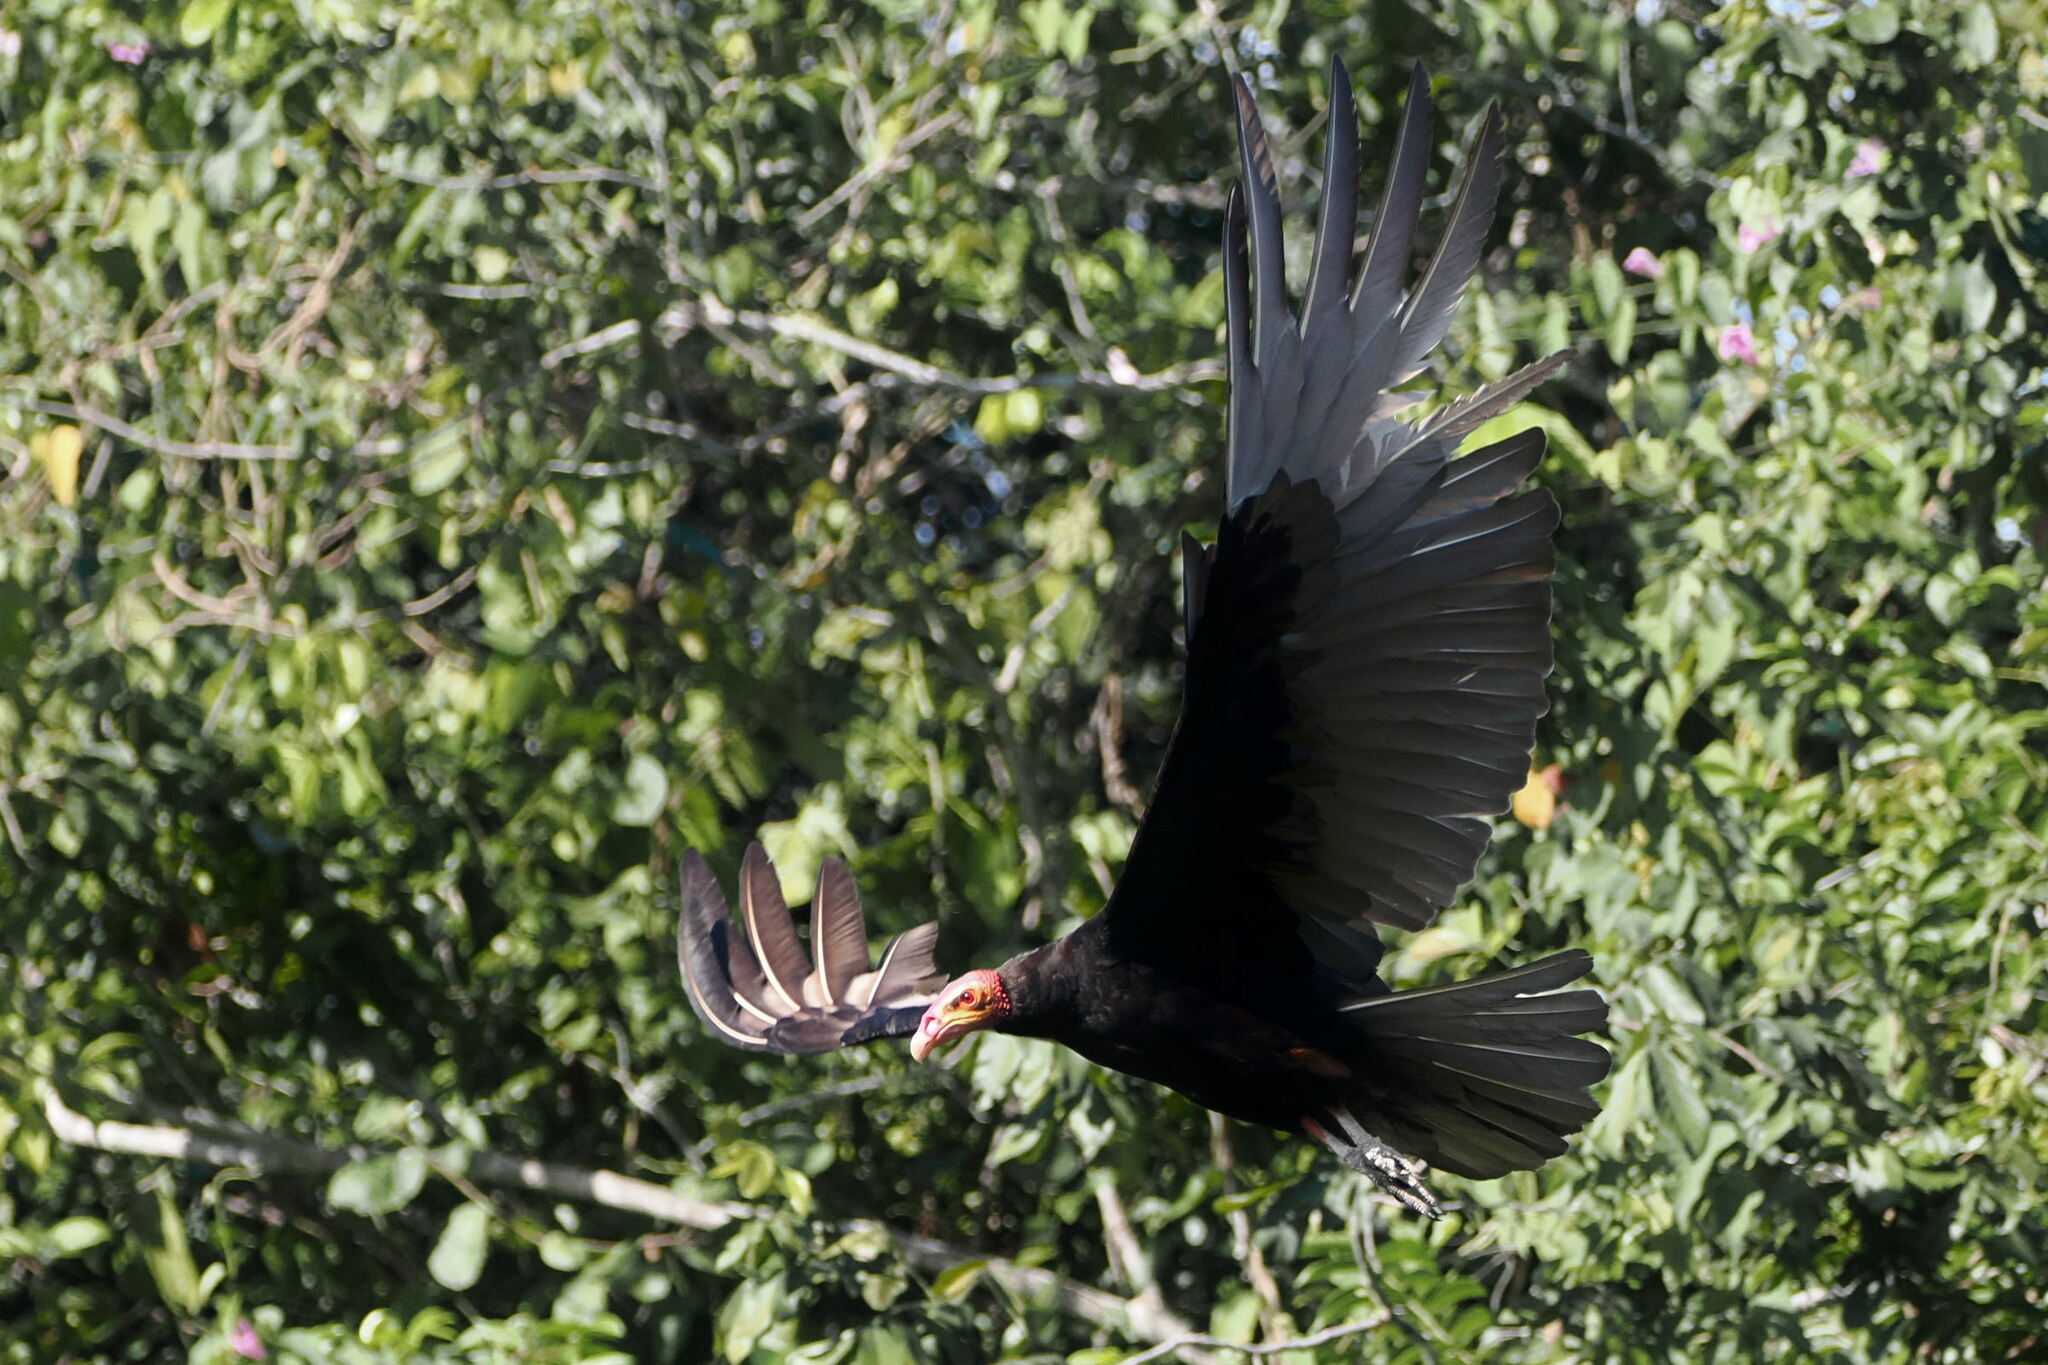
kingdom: Animalia
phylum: Chordata
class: Aves
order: Accipitriformes
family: Cathartidae
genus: Cathartes
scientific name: Cathartes burrovianus
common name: Lesser yellow-headed vulture
